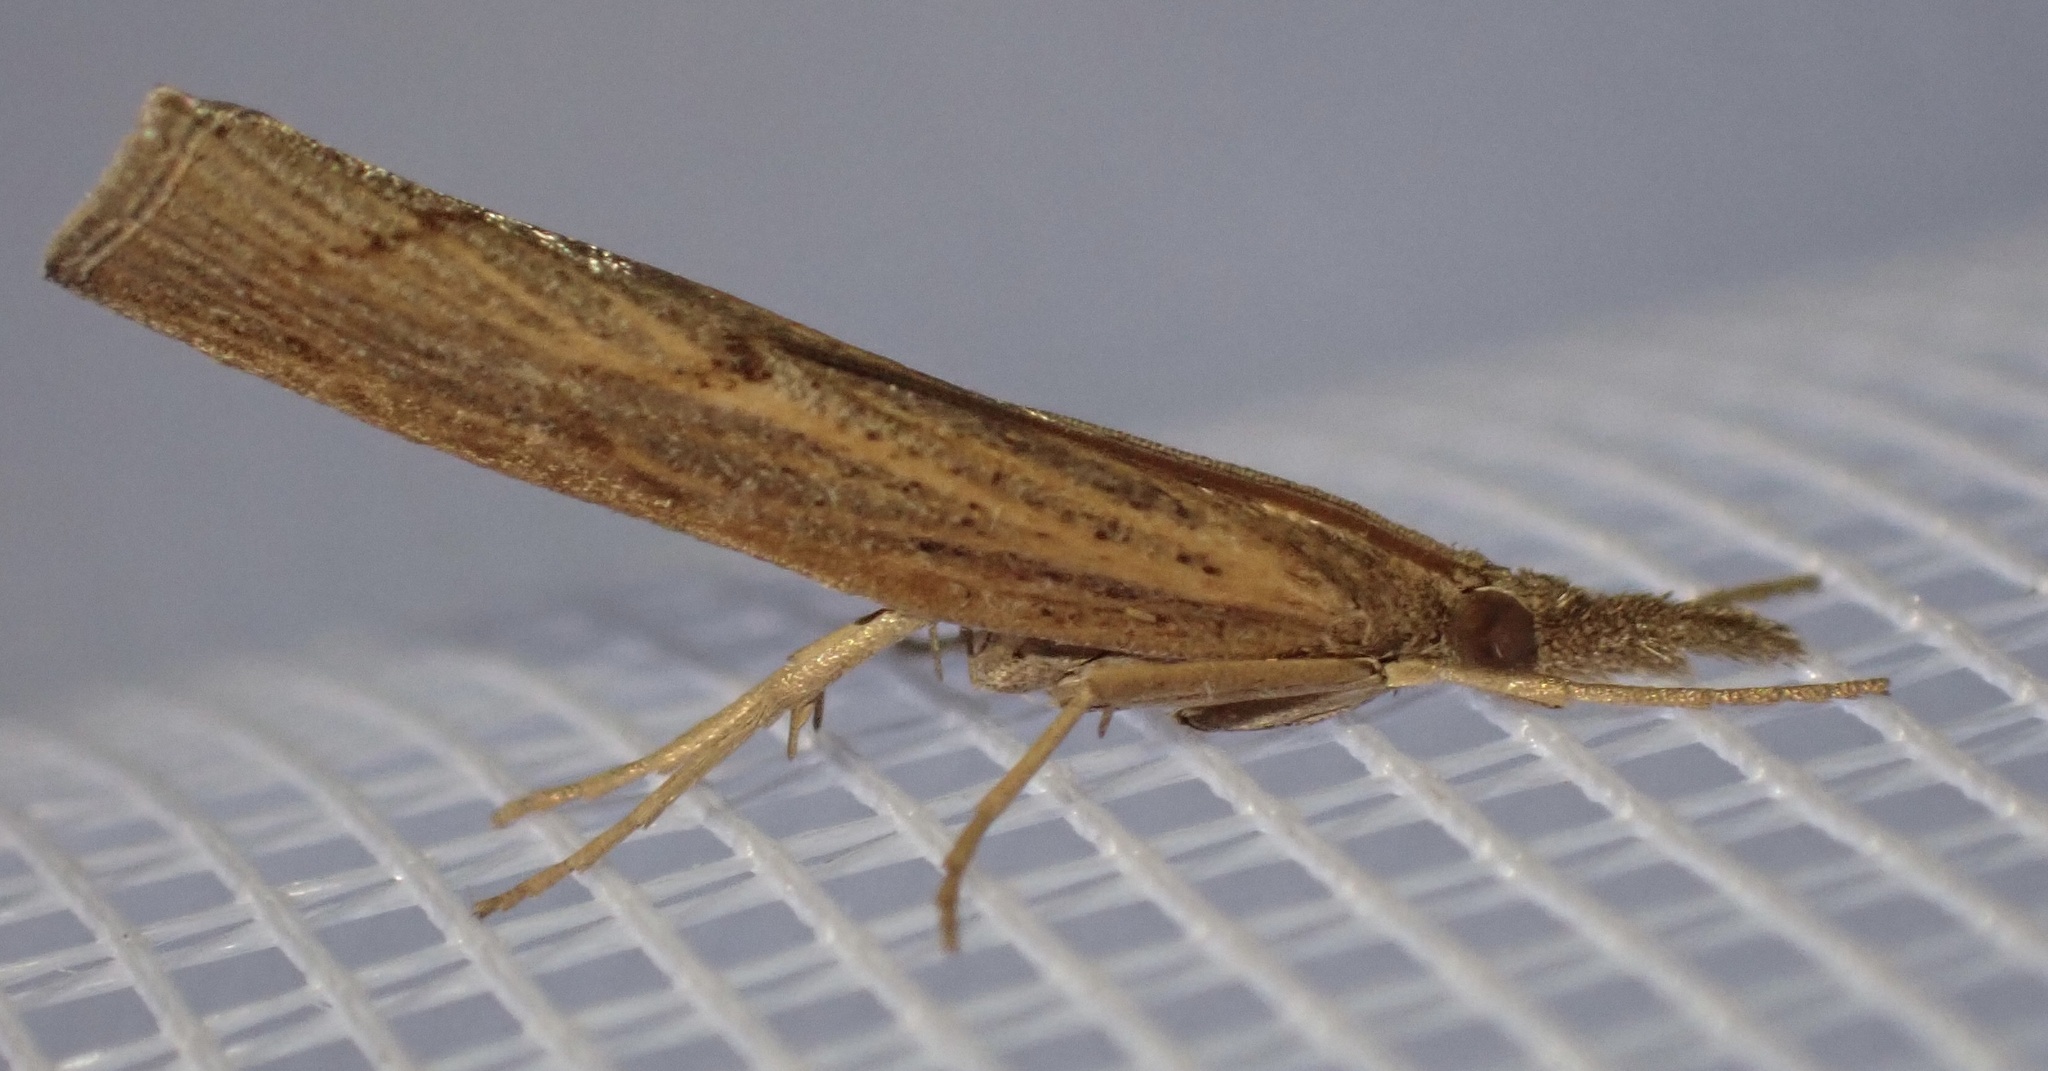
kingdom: Animalia
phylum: Arthropoda
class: Insecta
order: Lepidoptera
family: Crambidae
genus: Pediasia
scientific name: Pediasia contaminella
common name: Waste grass-veneer
